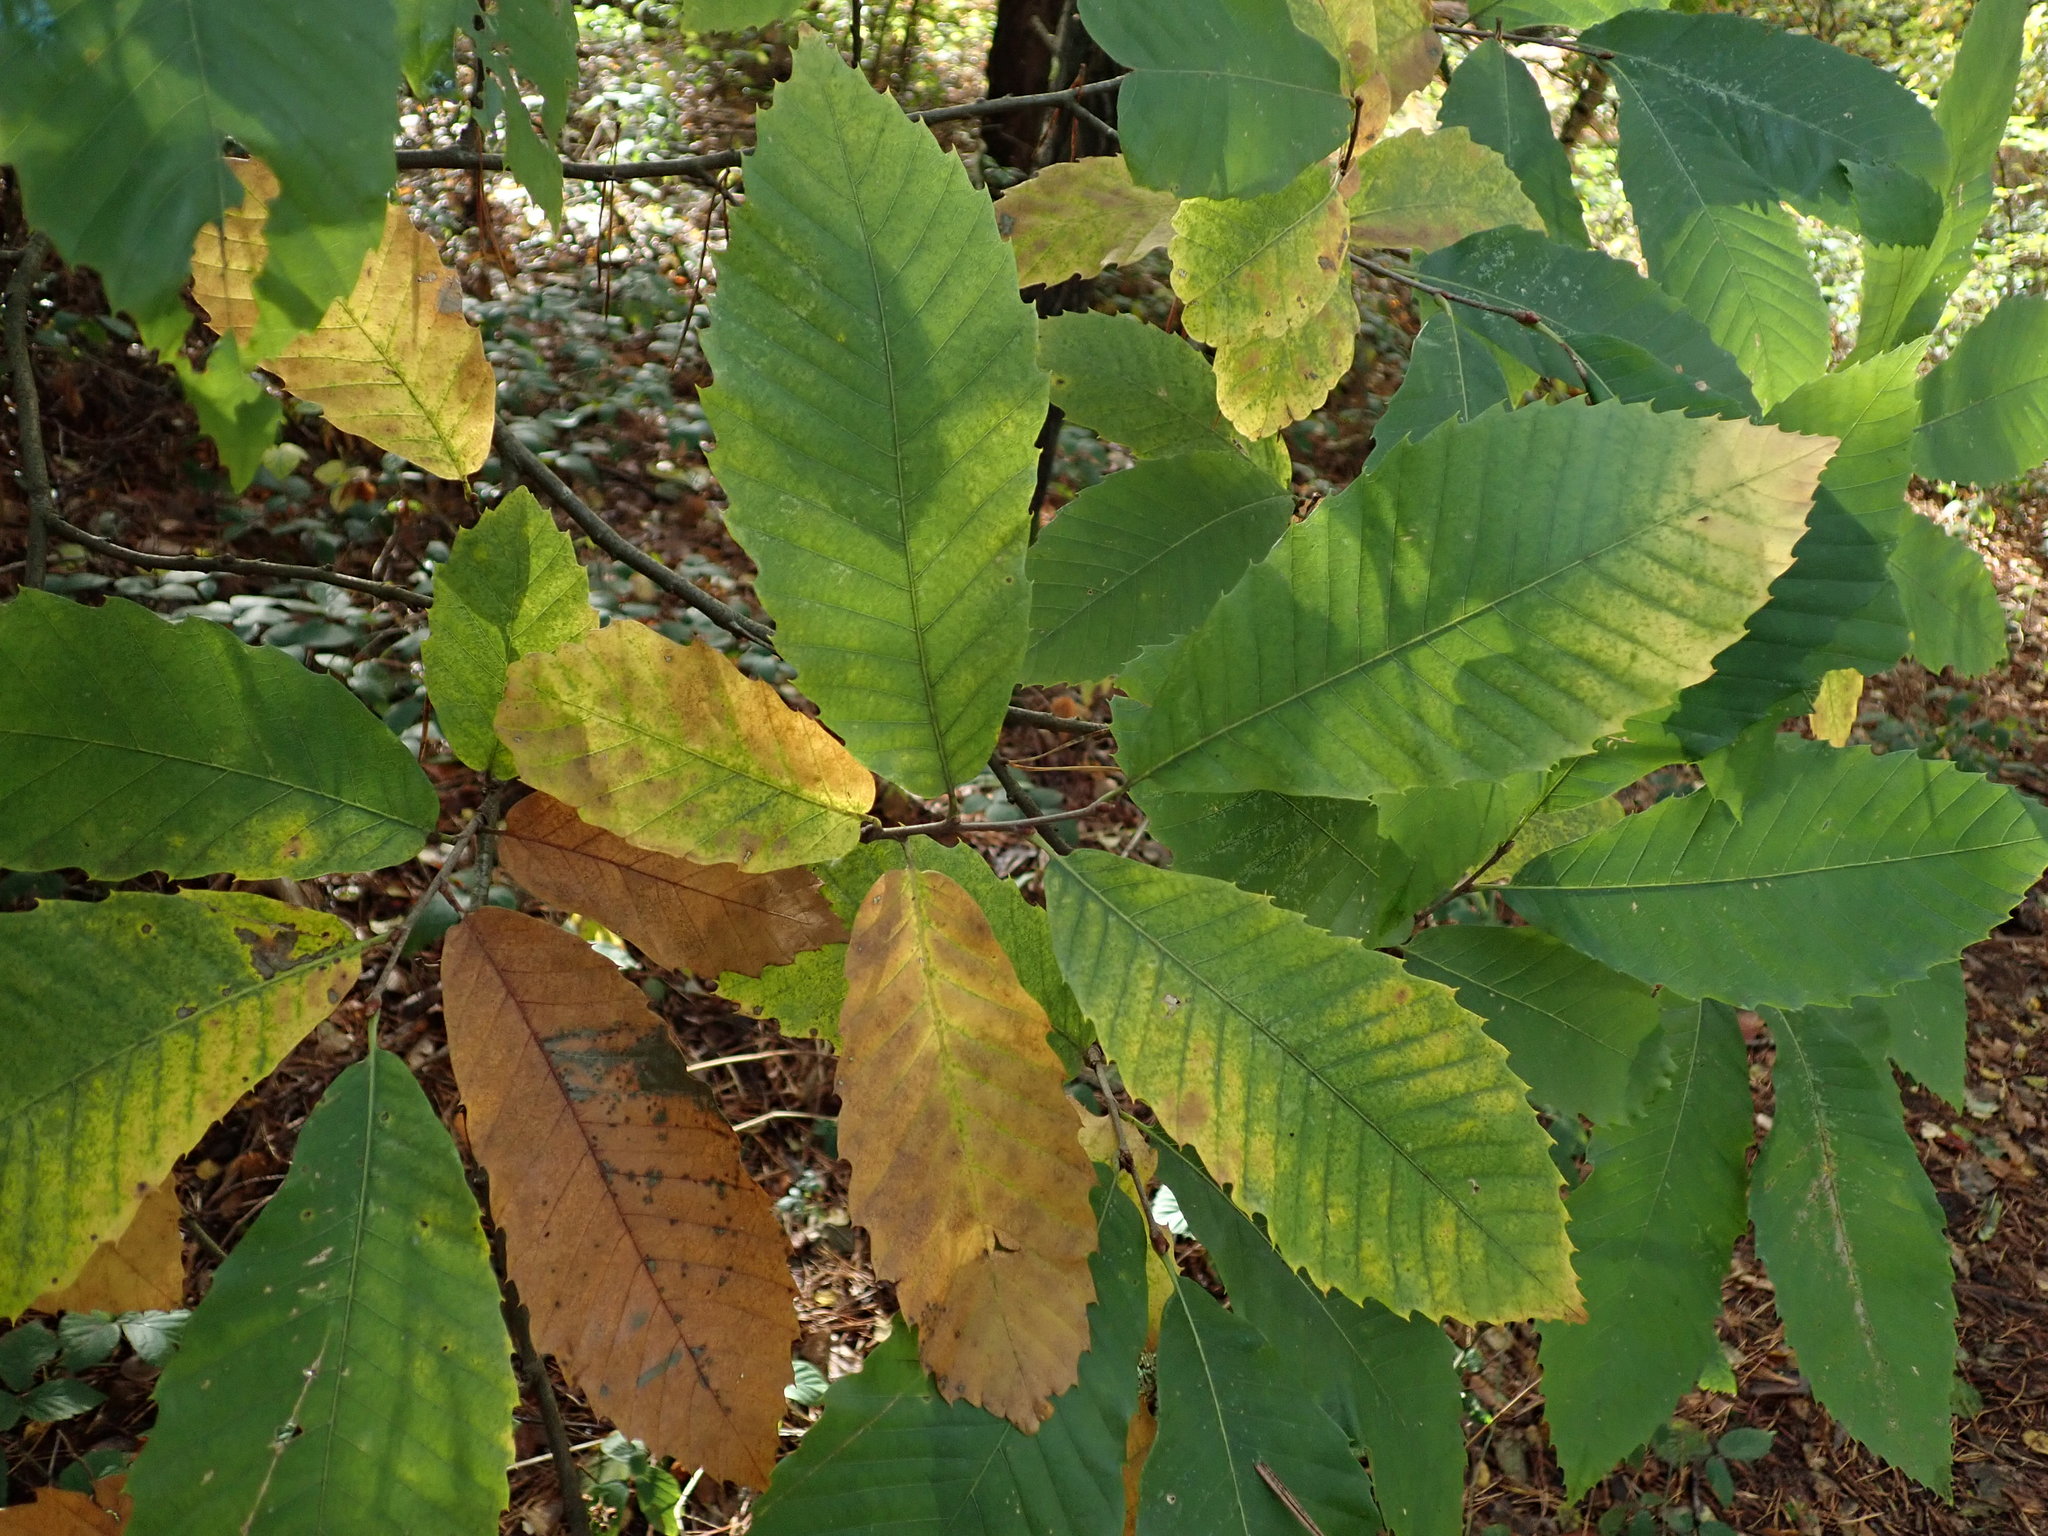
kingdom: Plantae
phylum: Tracheophyta
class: Magnoliopsida
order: Fagales
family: Fagaceae
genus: Castanea
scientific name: Castanea sativa
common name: Sweet chestnut
